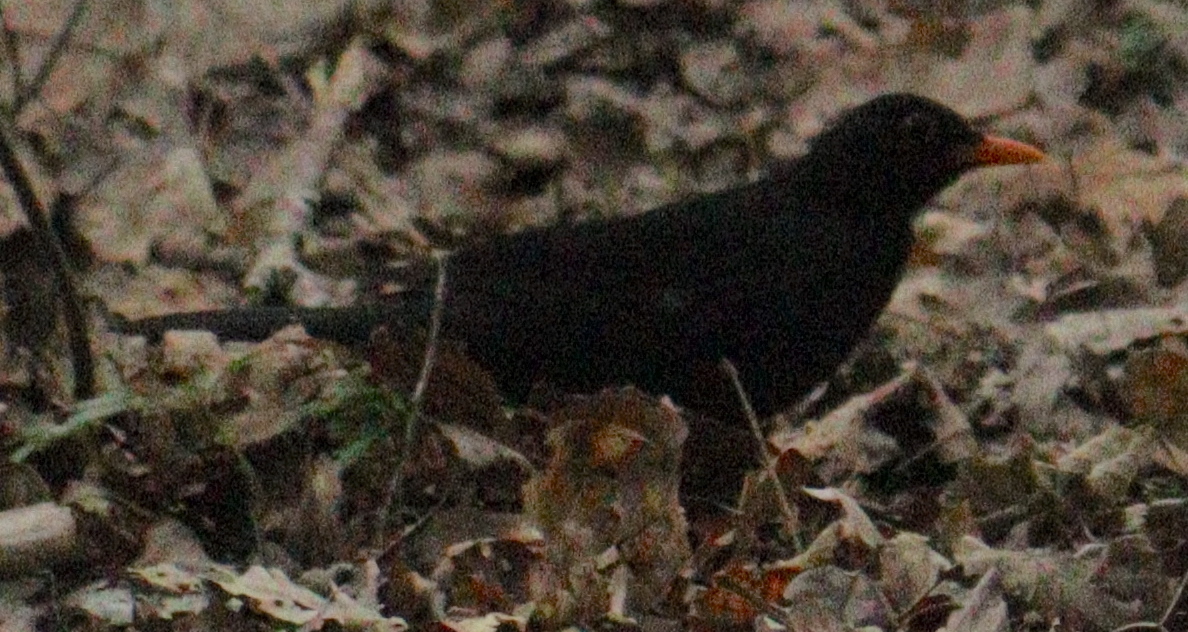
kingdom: Animalia
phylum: Chordata
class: Aves
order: Passeriformes
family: Turdidae
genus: Turdus
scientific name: Turdus merula
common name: Common blackbird
